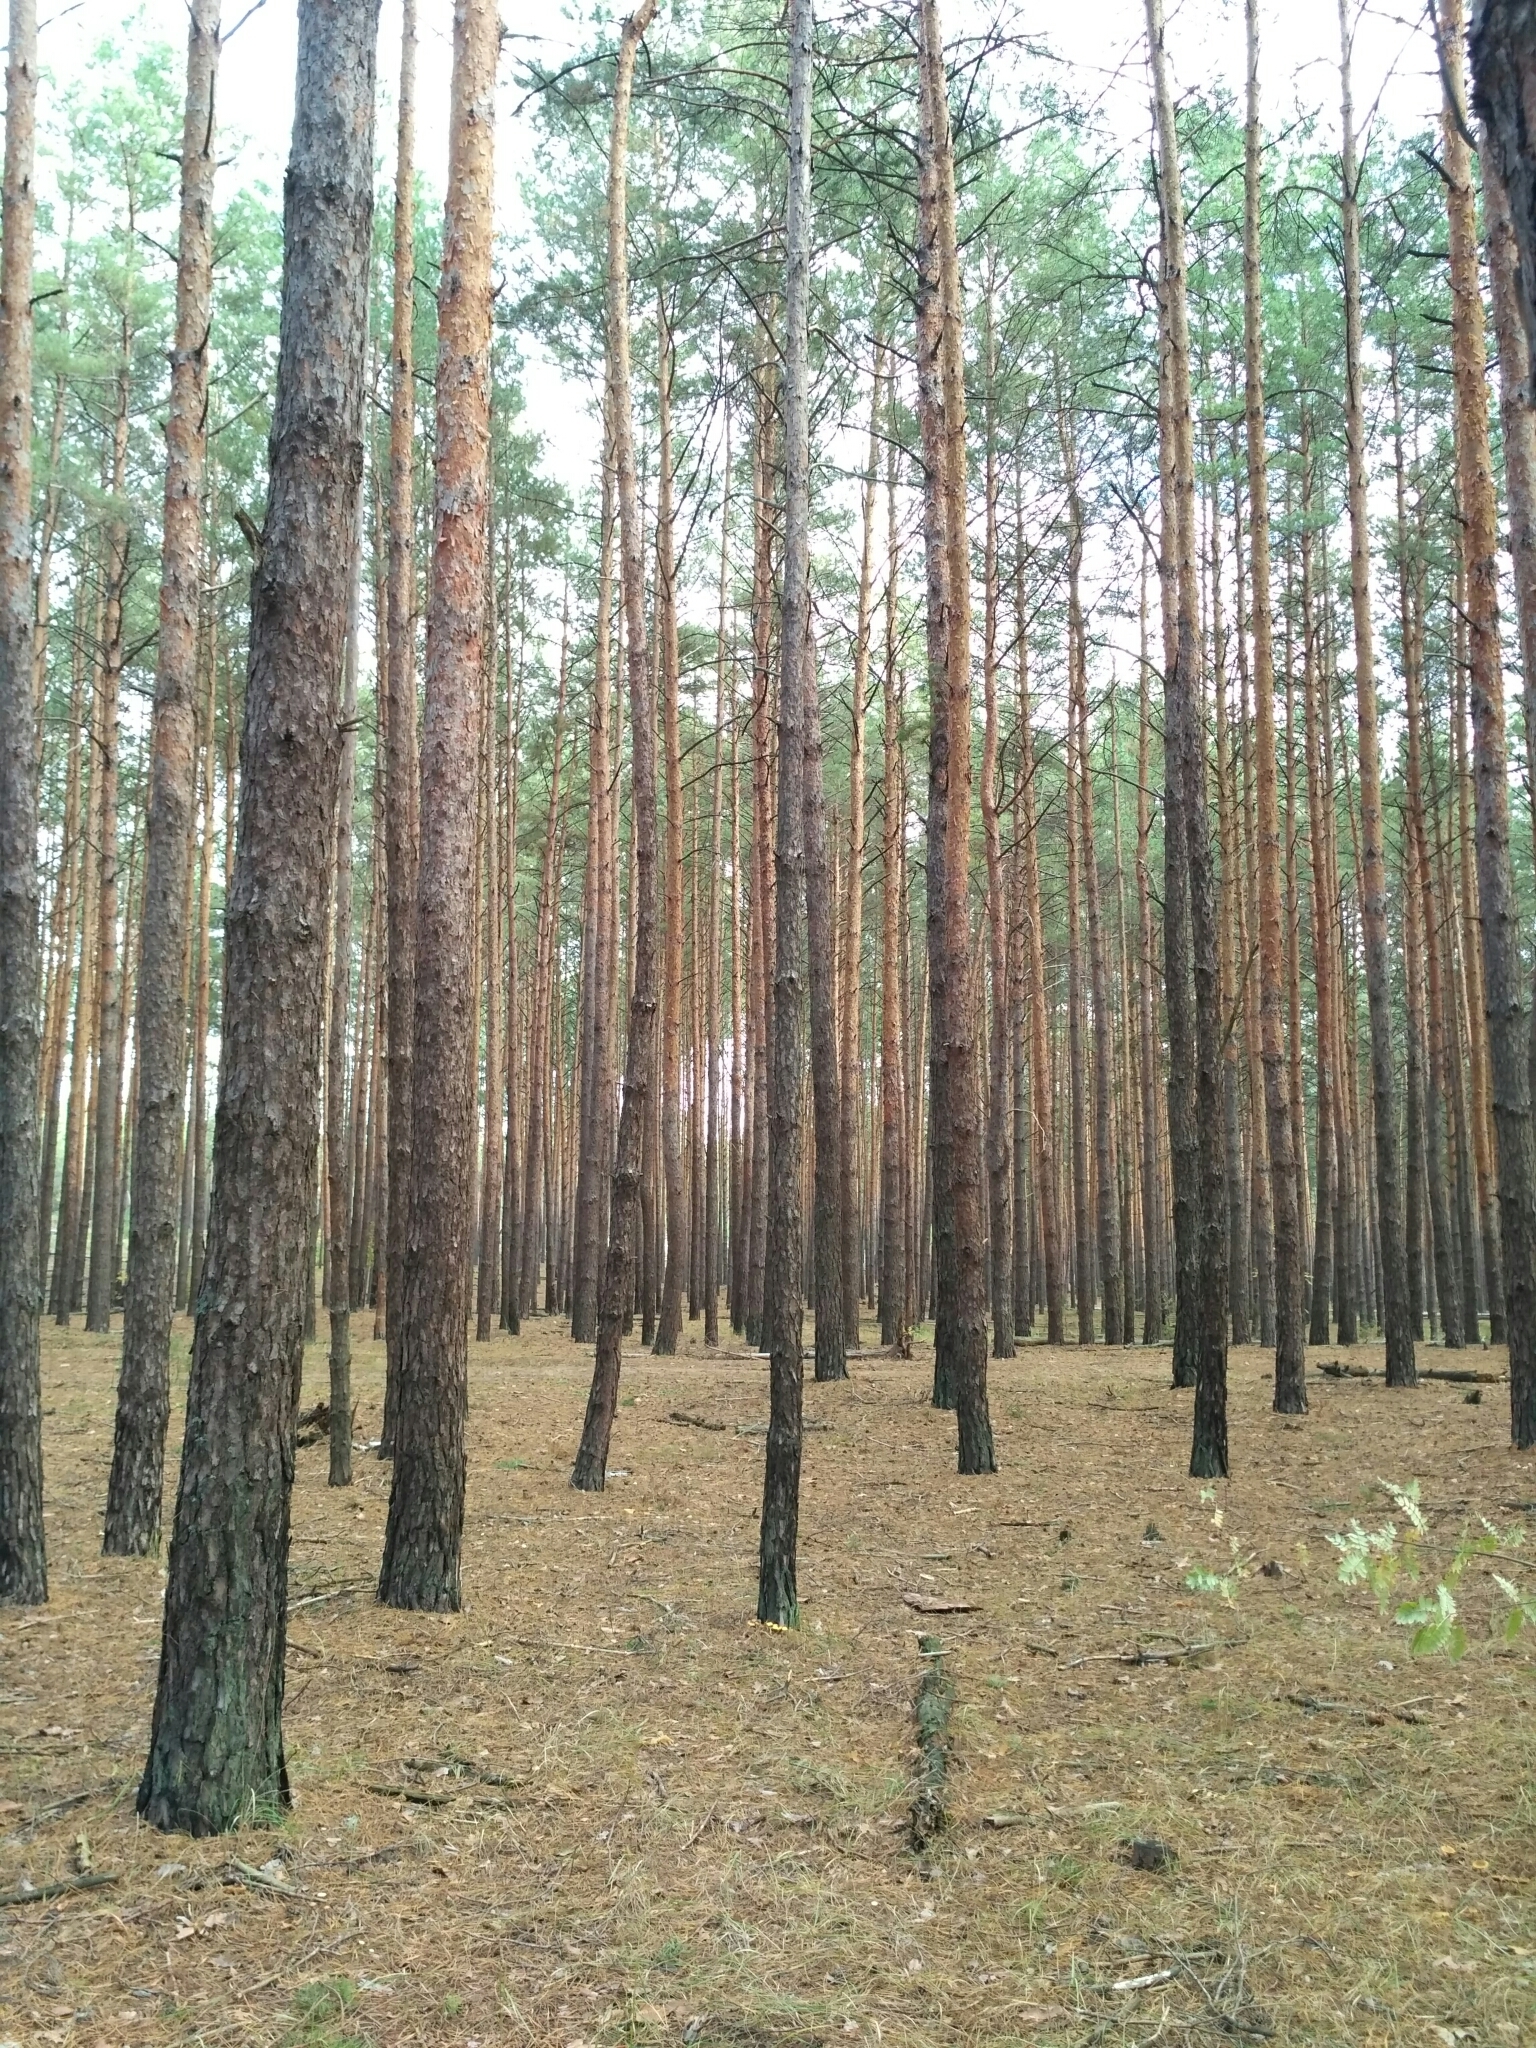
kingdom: Plantae
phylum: Tracheophyta
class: Pinopsida
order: Pinales
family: Pinaceae
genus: Pinus
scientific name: Pinus sylvestris
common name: Scots pine
